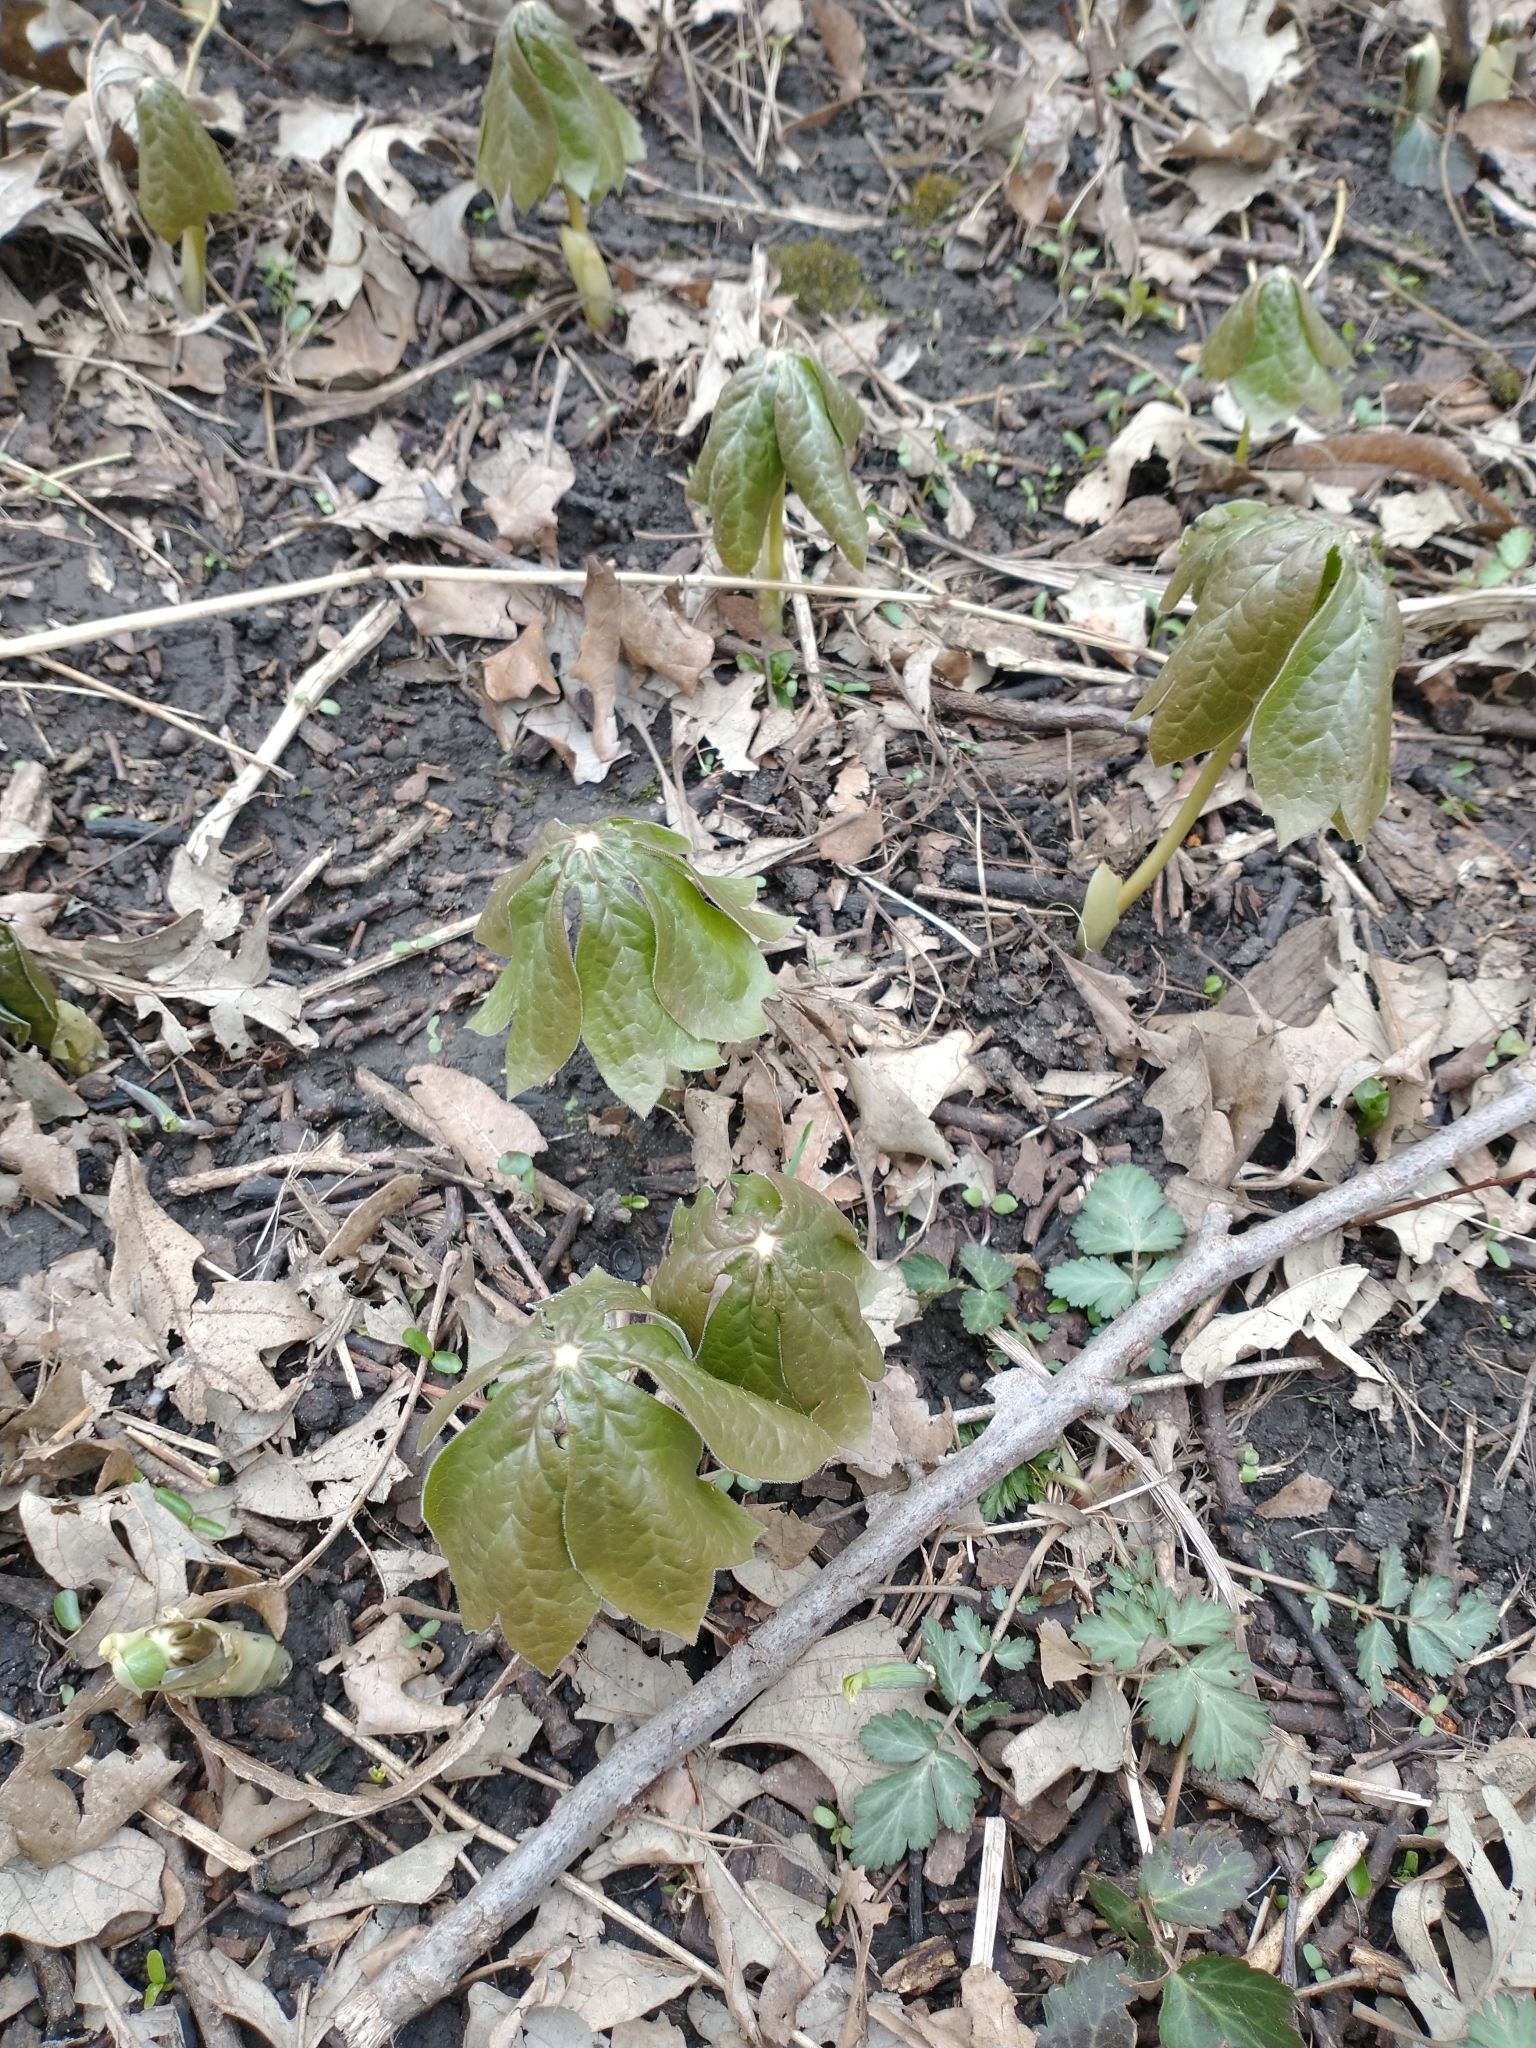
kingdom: Plantae
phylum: Tracheophyta
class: Magnoliopsida
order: Ranunculales
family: Berberidaceae
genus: Podophyllum
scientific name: Podophyllum peltatum
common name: Wild mandrake
